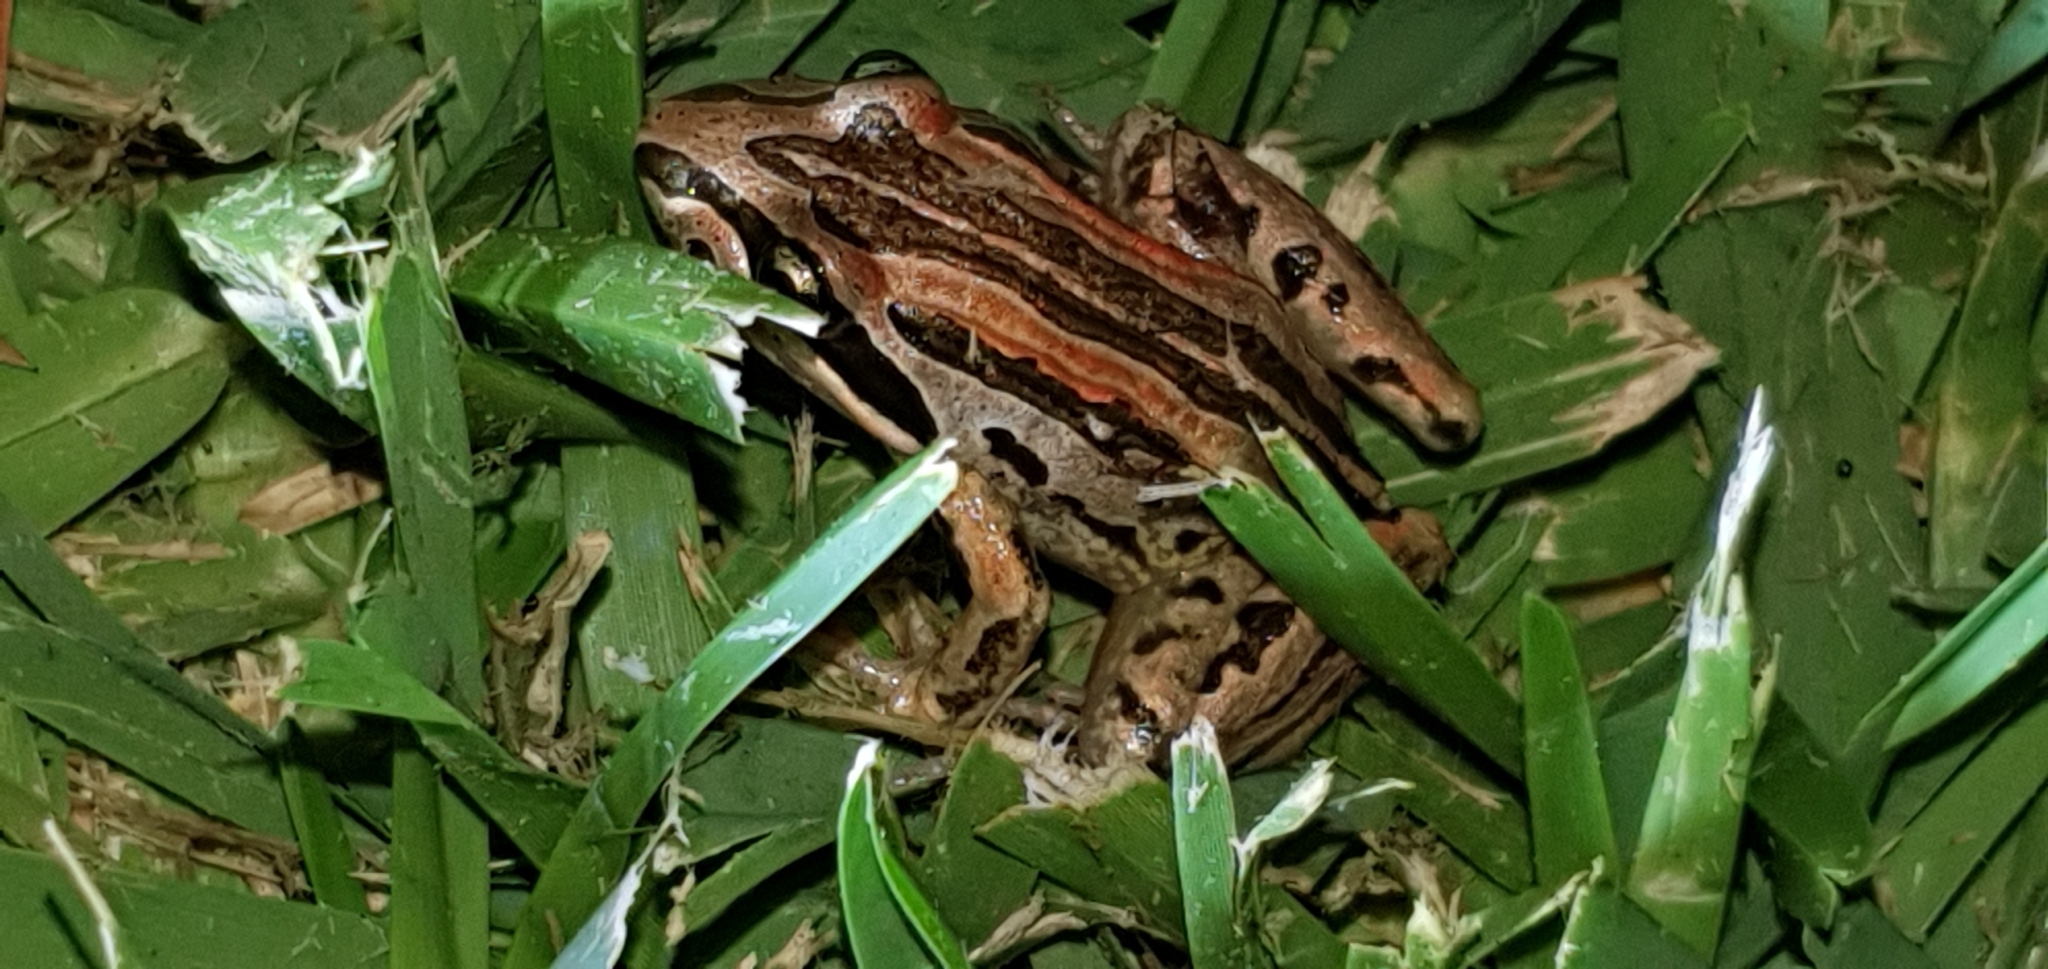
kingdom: Animalia
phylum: Chordata
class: Amphibia
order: Anura
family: Limnodynastidae
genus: Limnodynastes
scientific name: Limnodynastes peronii
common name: Brown frog
